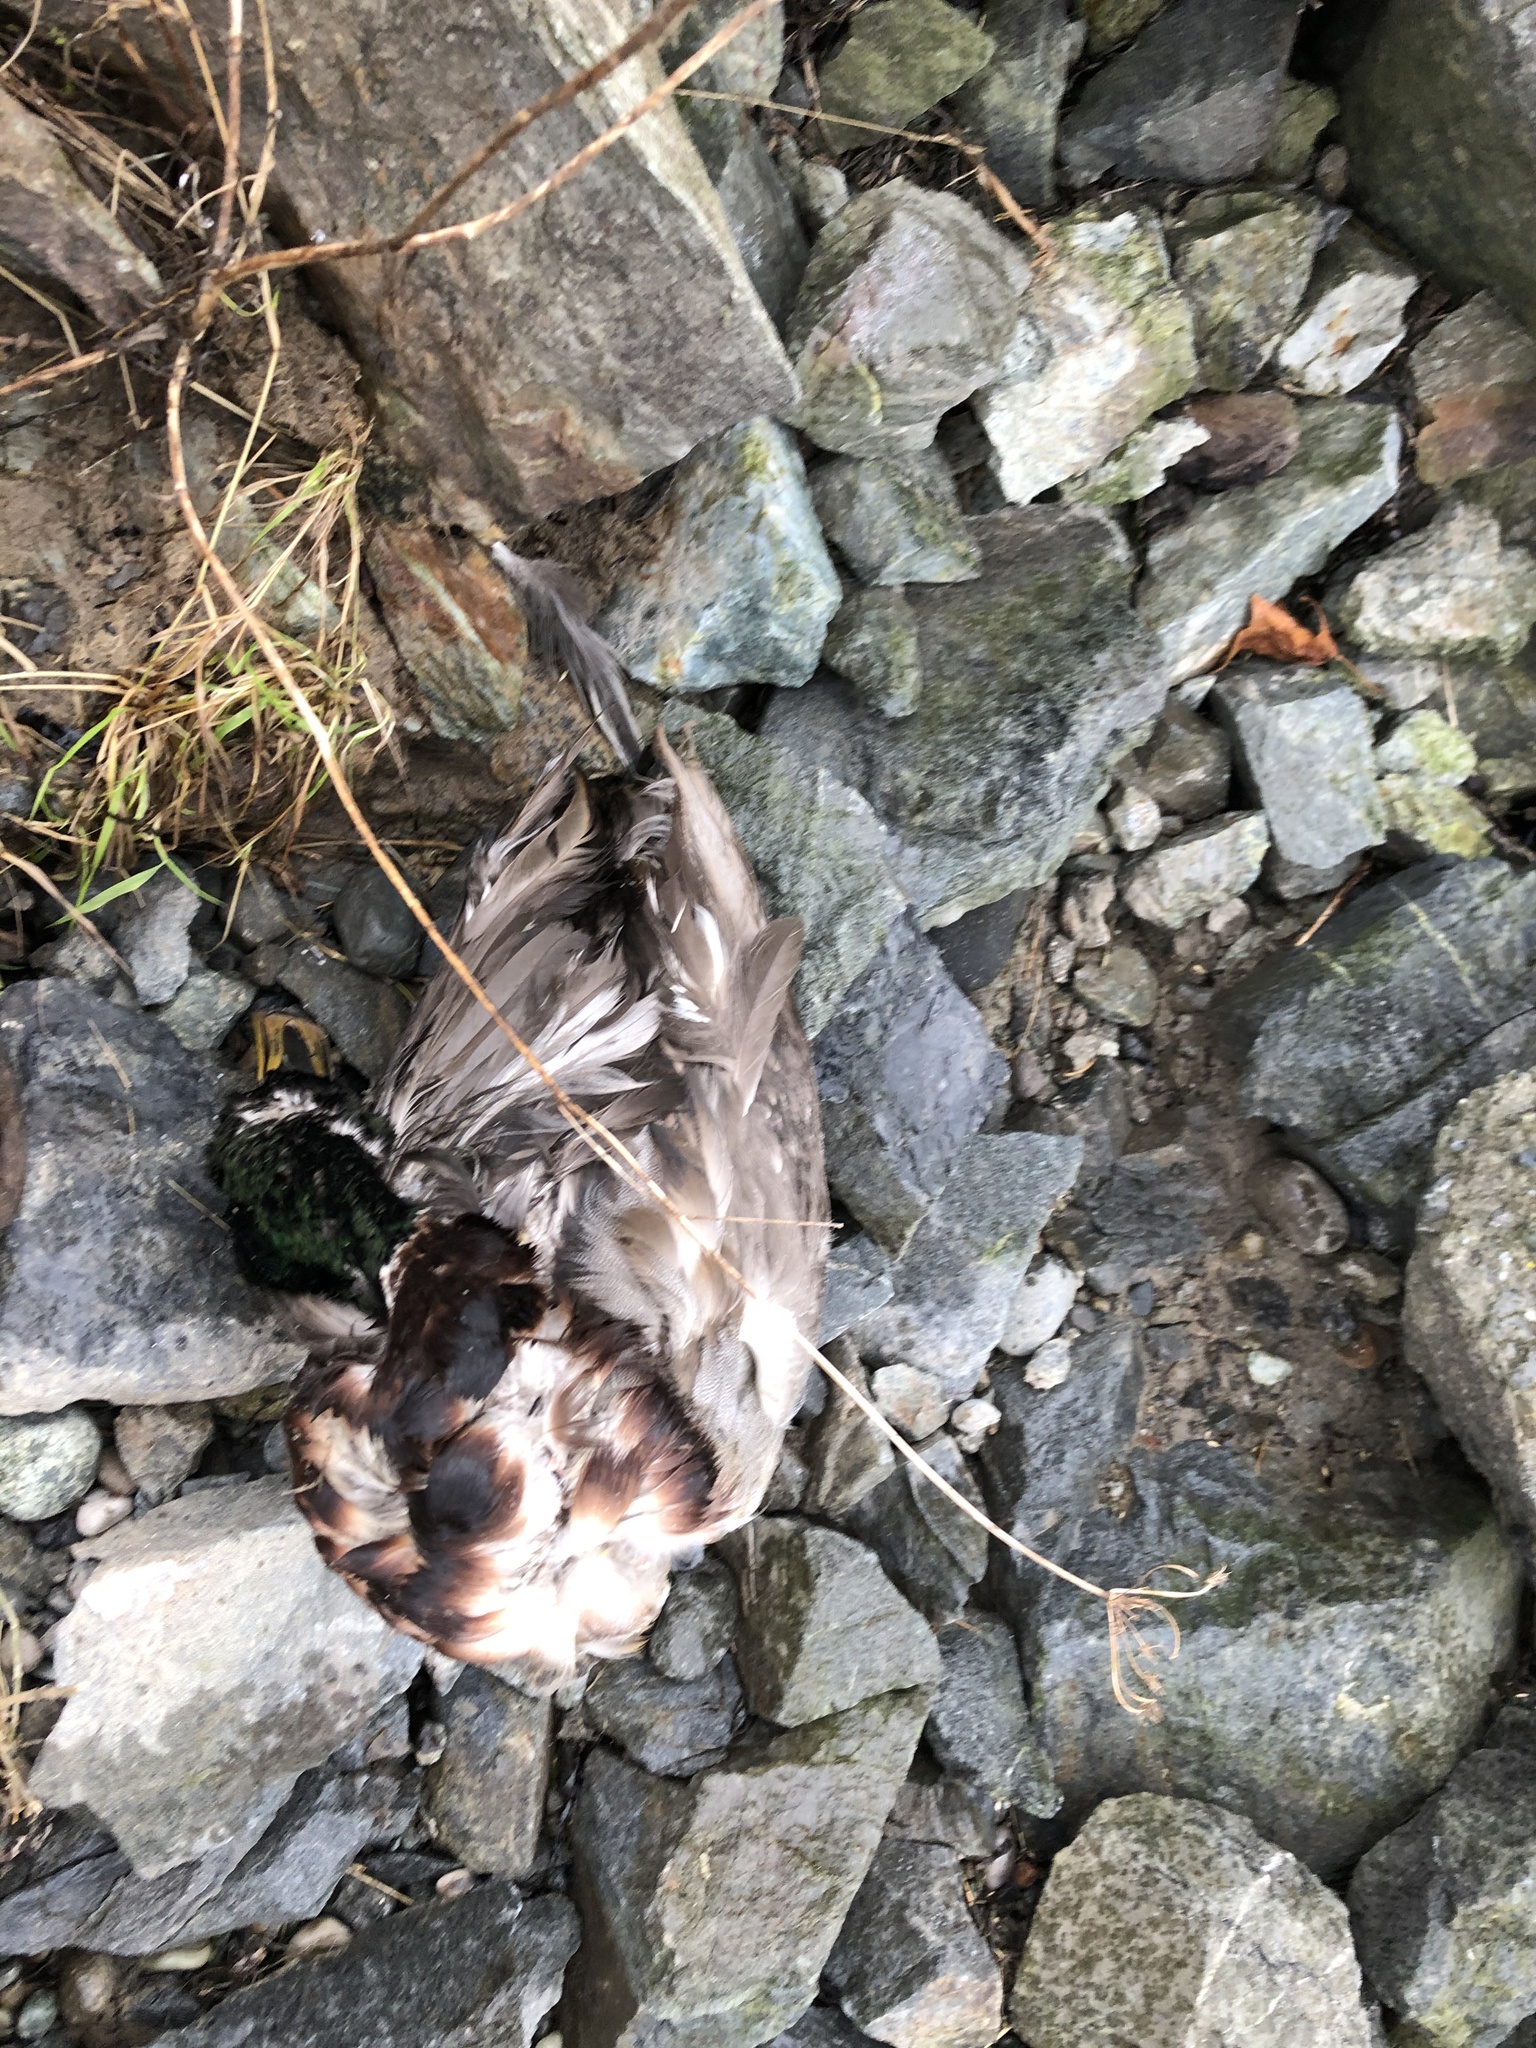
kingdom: Animalia
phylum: Chordata
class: Aves
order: Anseriformes
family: Anatidae
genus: Anas
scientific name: Anas platyrhynchos
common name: Mallard
